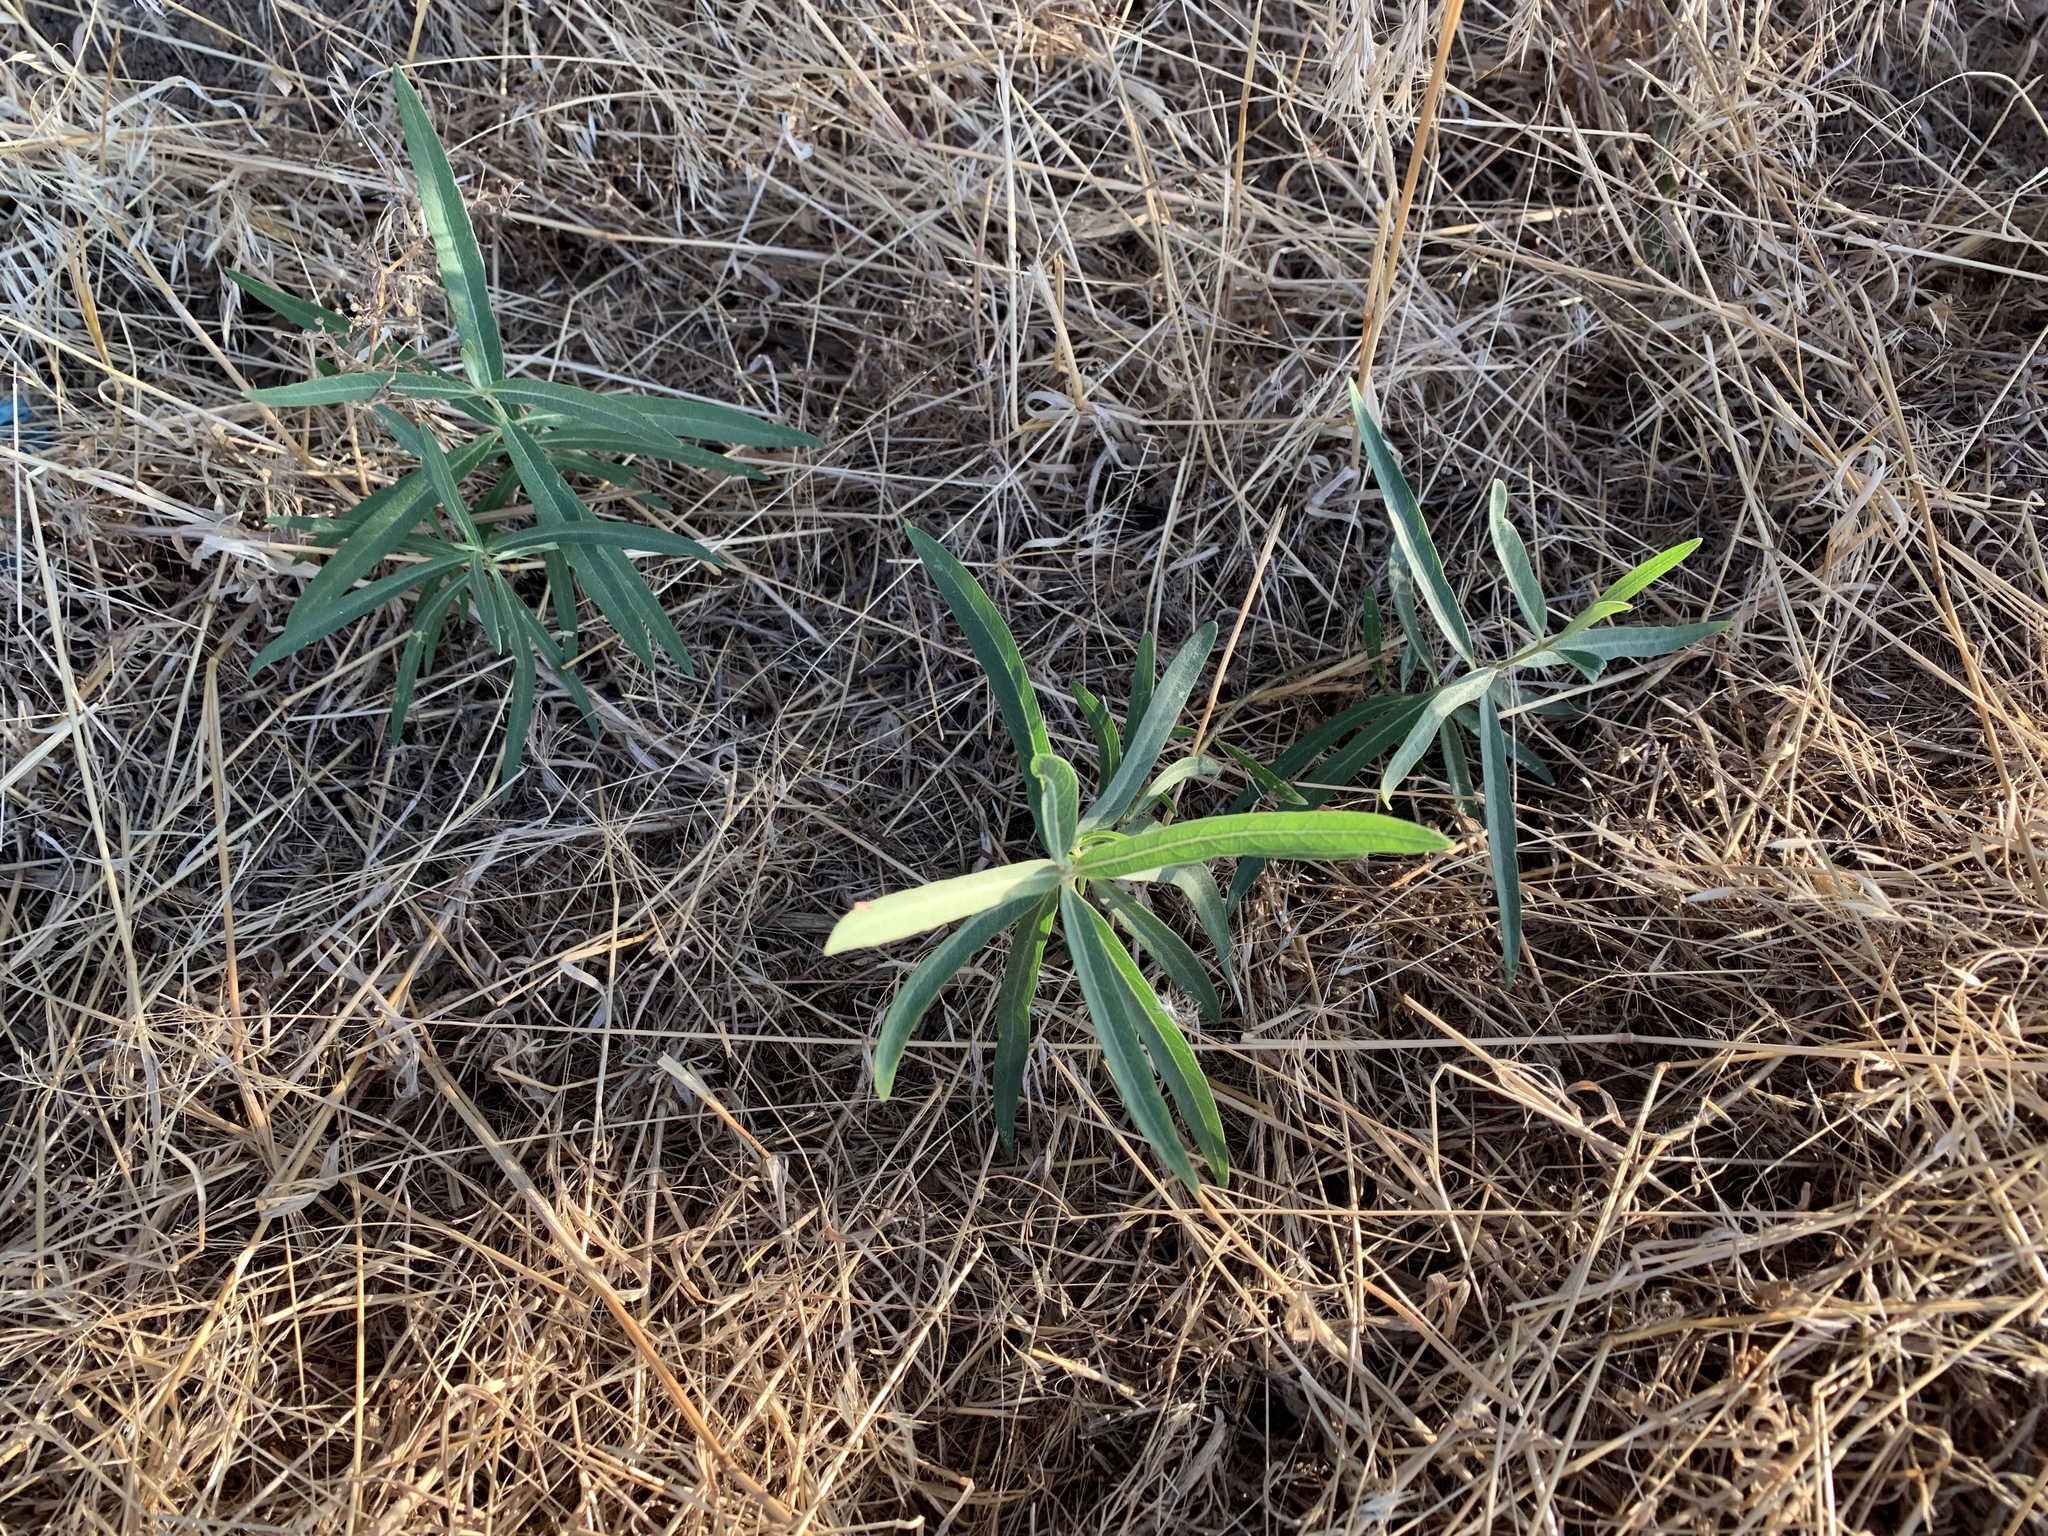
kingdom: Plantae
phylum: Tracheophyta
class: Magnoliopsida
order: Gentianales
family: Apocynaceae
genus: Asclepias
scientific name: Asclepias speciosa
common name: Showy milkweed
